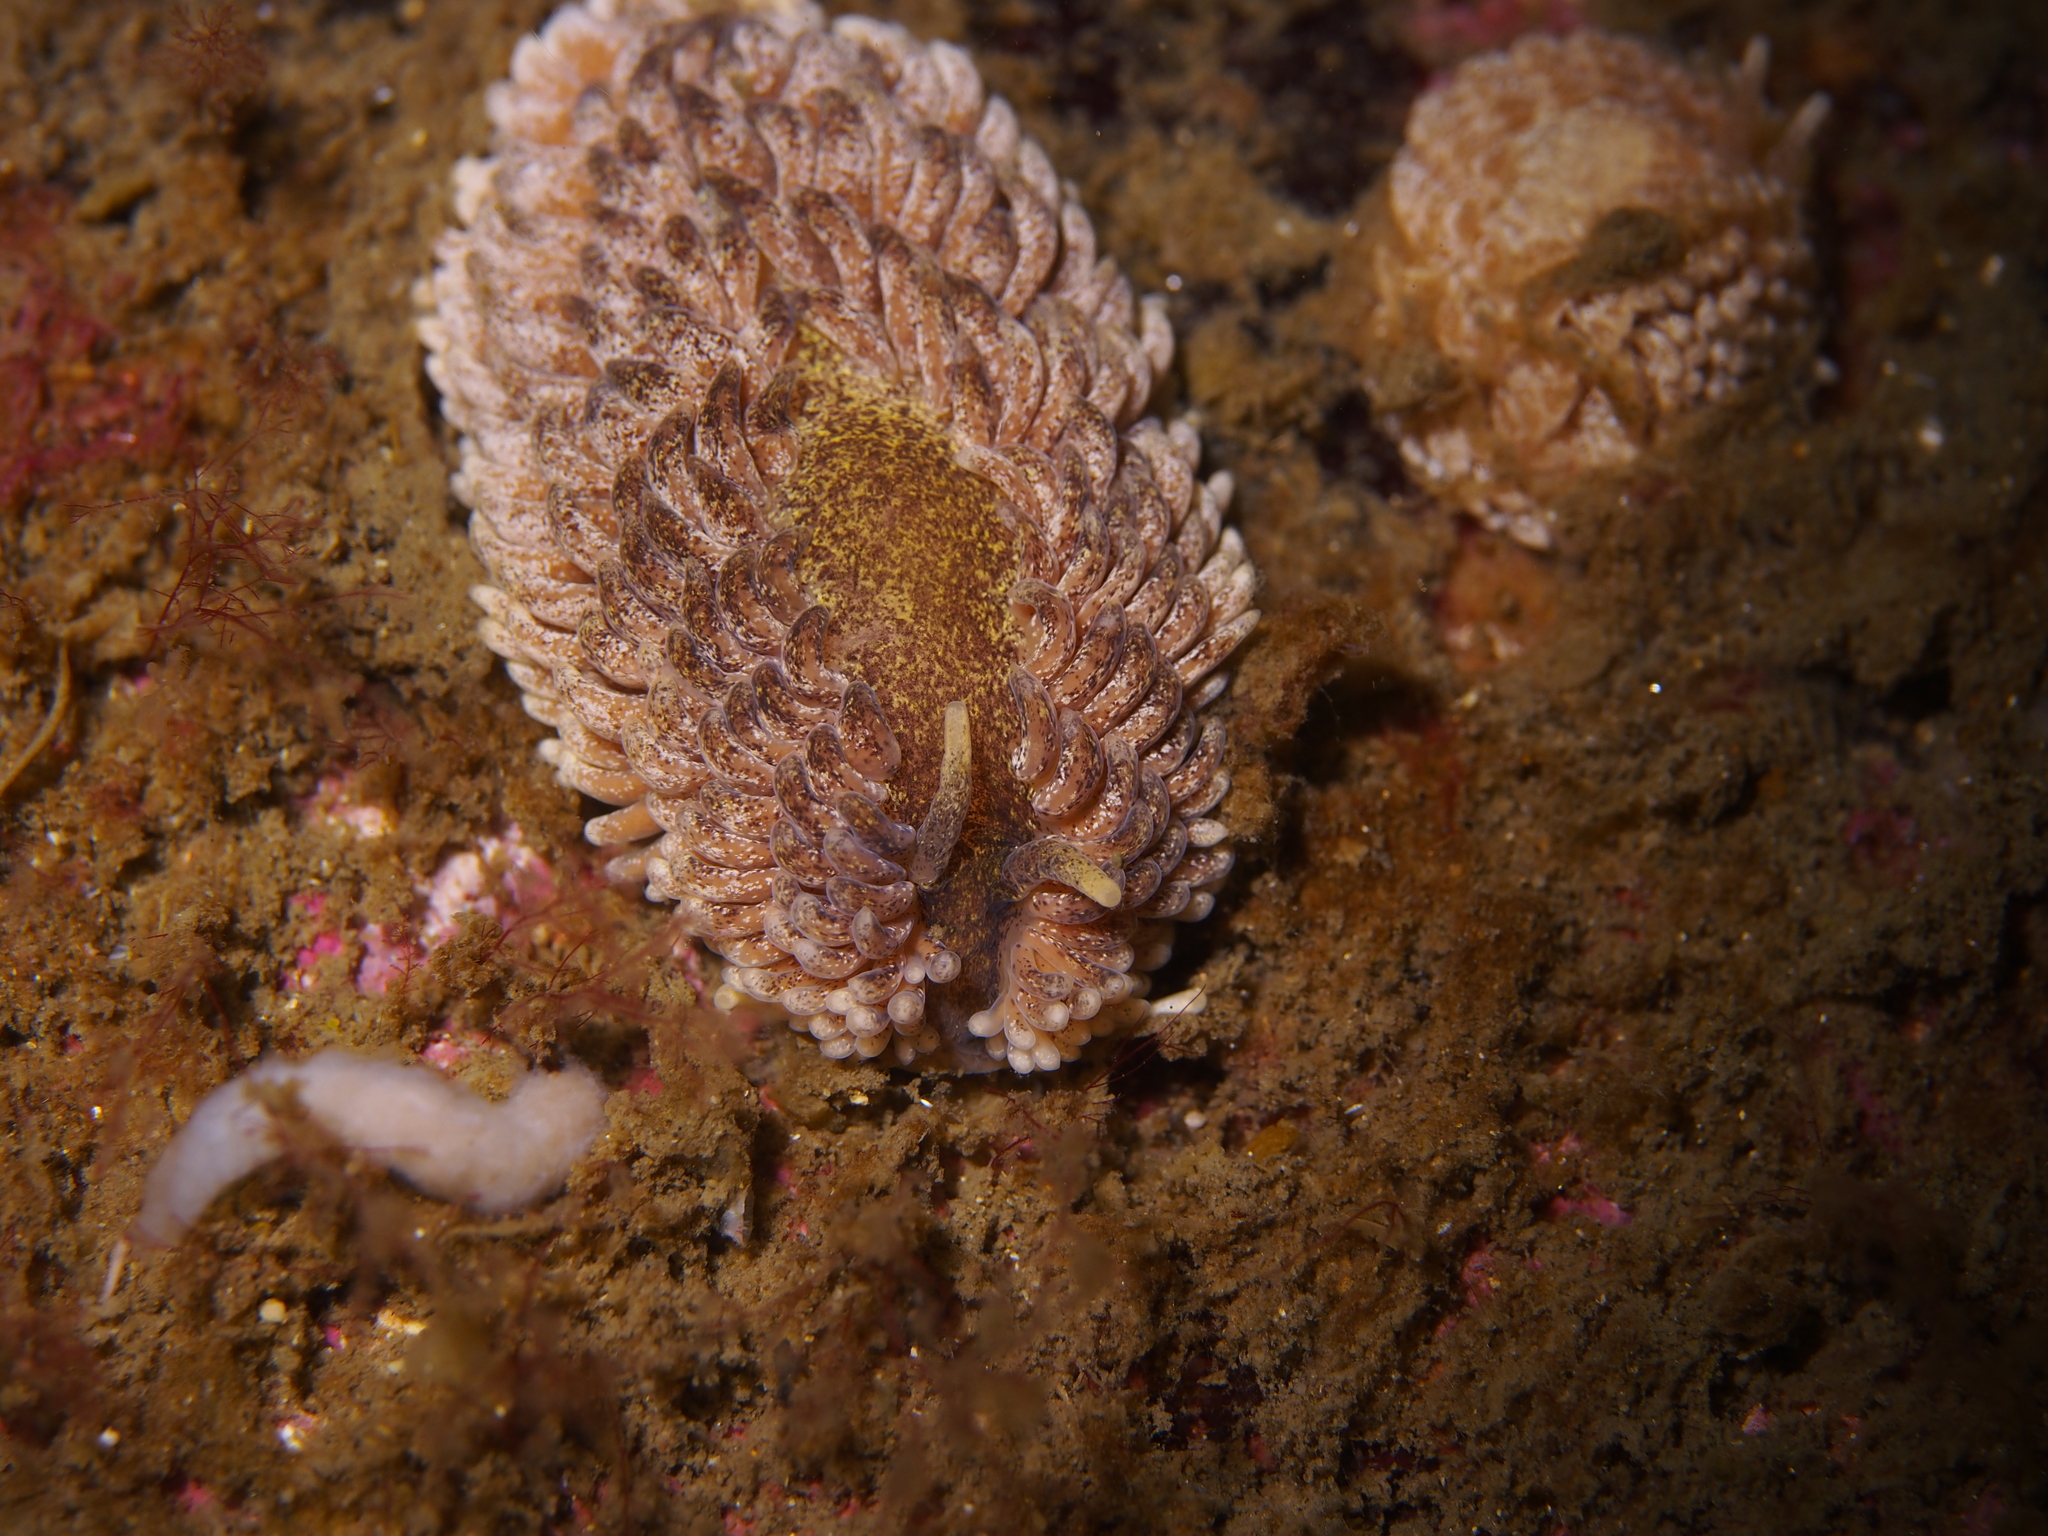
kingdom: Animalia
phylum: Mollusca
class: Gastropoda
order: Nudibranchia
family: Aeolidiidae
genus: Aeolidia
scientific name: Aeolidia papillosa
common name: Common grey sea slug
